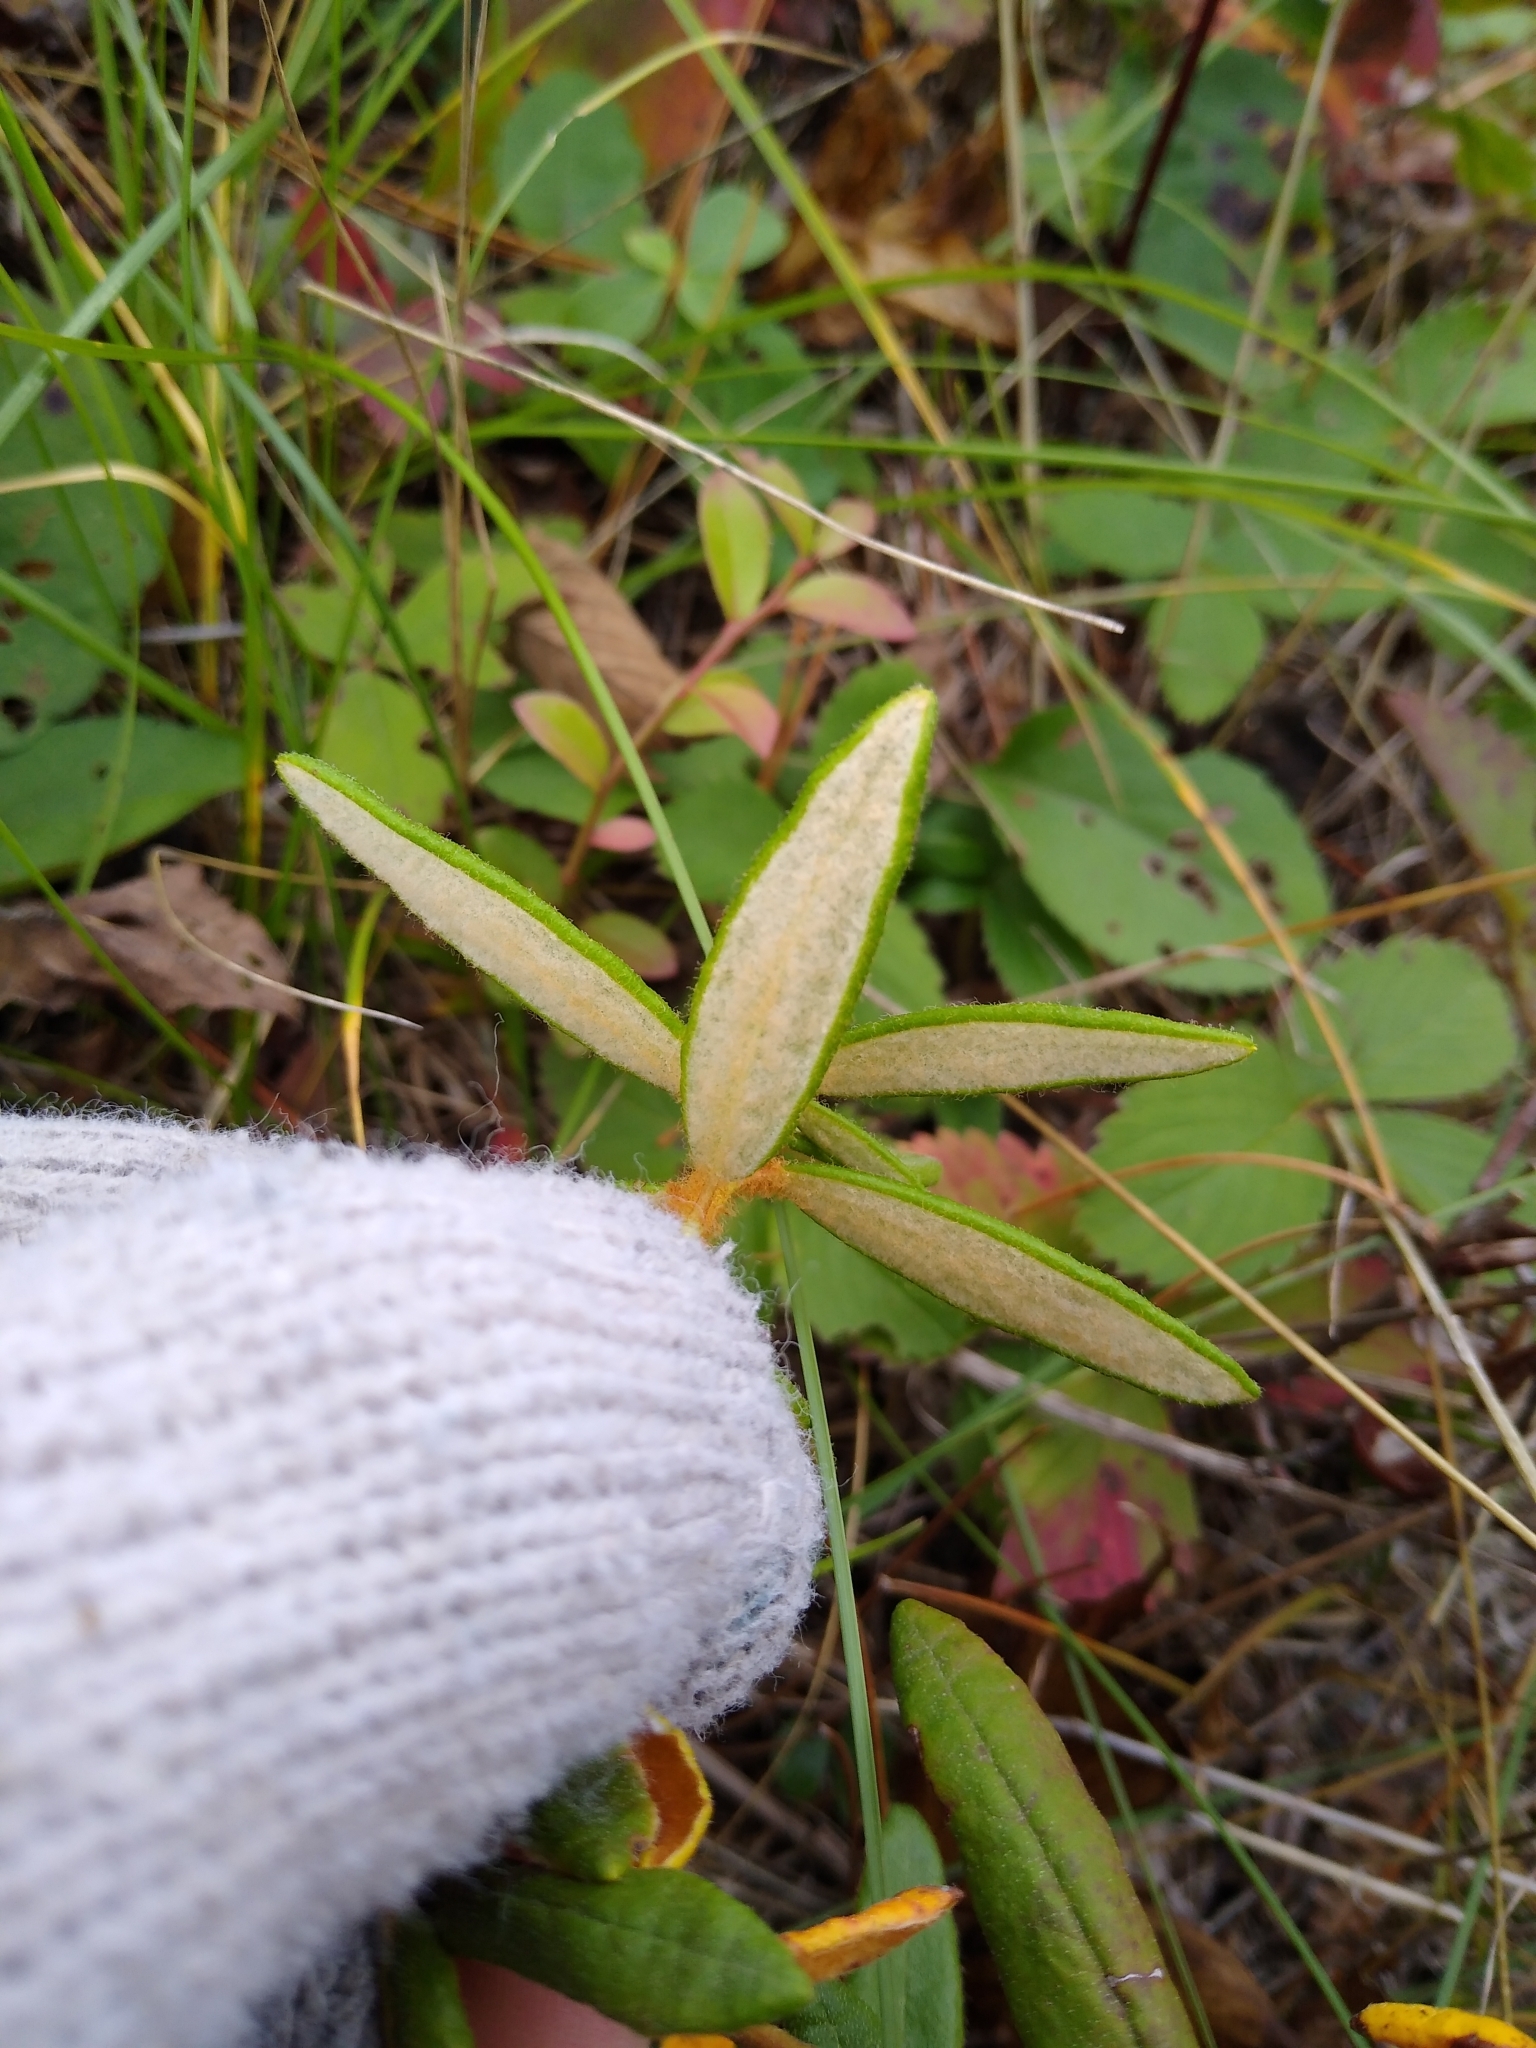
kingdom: Plantae
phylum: Tracheophyta
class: Magnoliopsida
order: Ericales
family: Ericaceae
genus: Rhododendron
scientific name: Rhododendron groenlandicum
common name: Bog labrador tea
